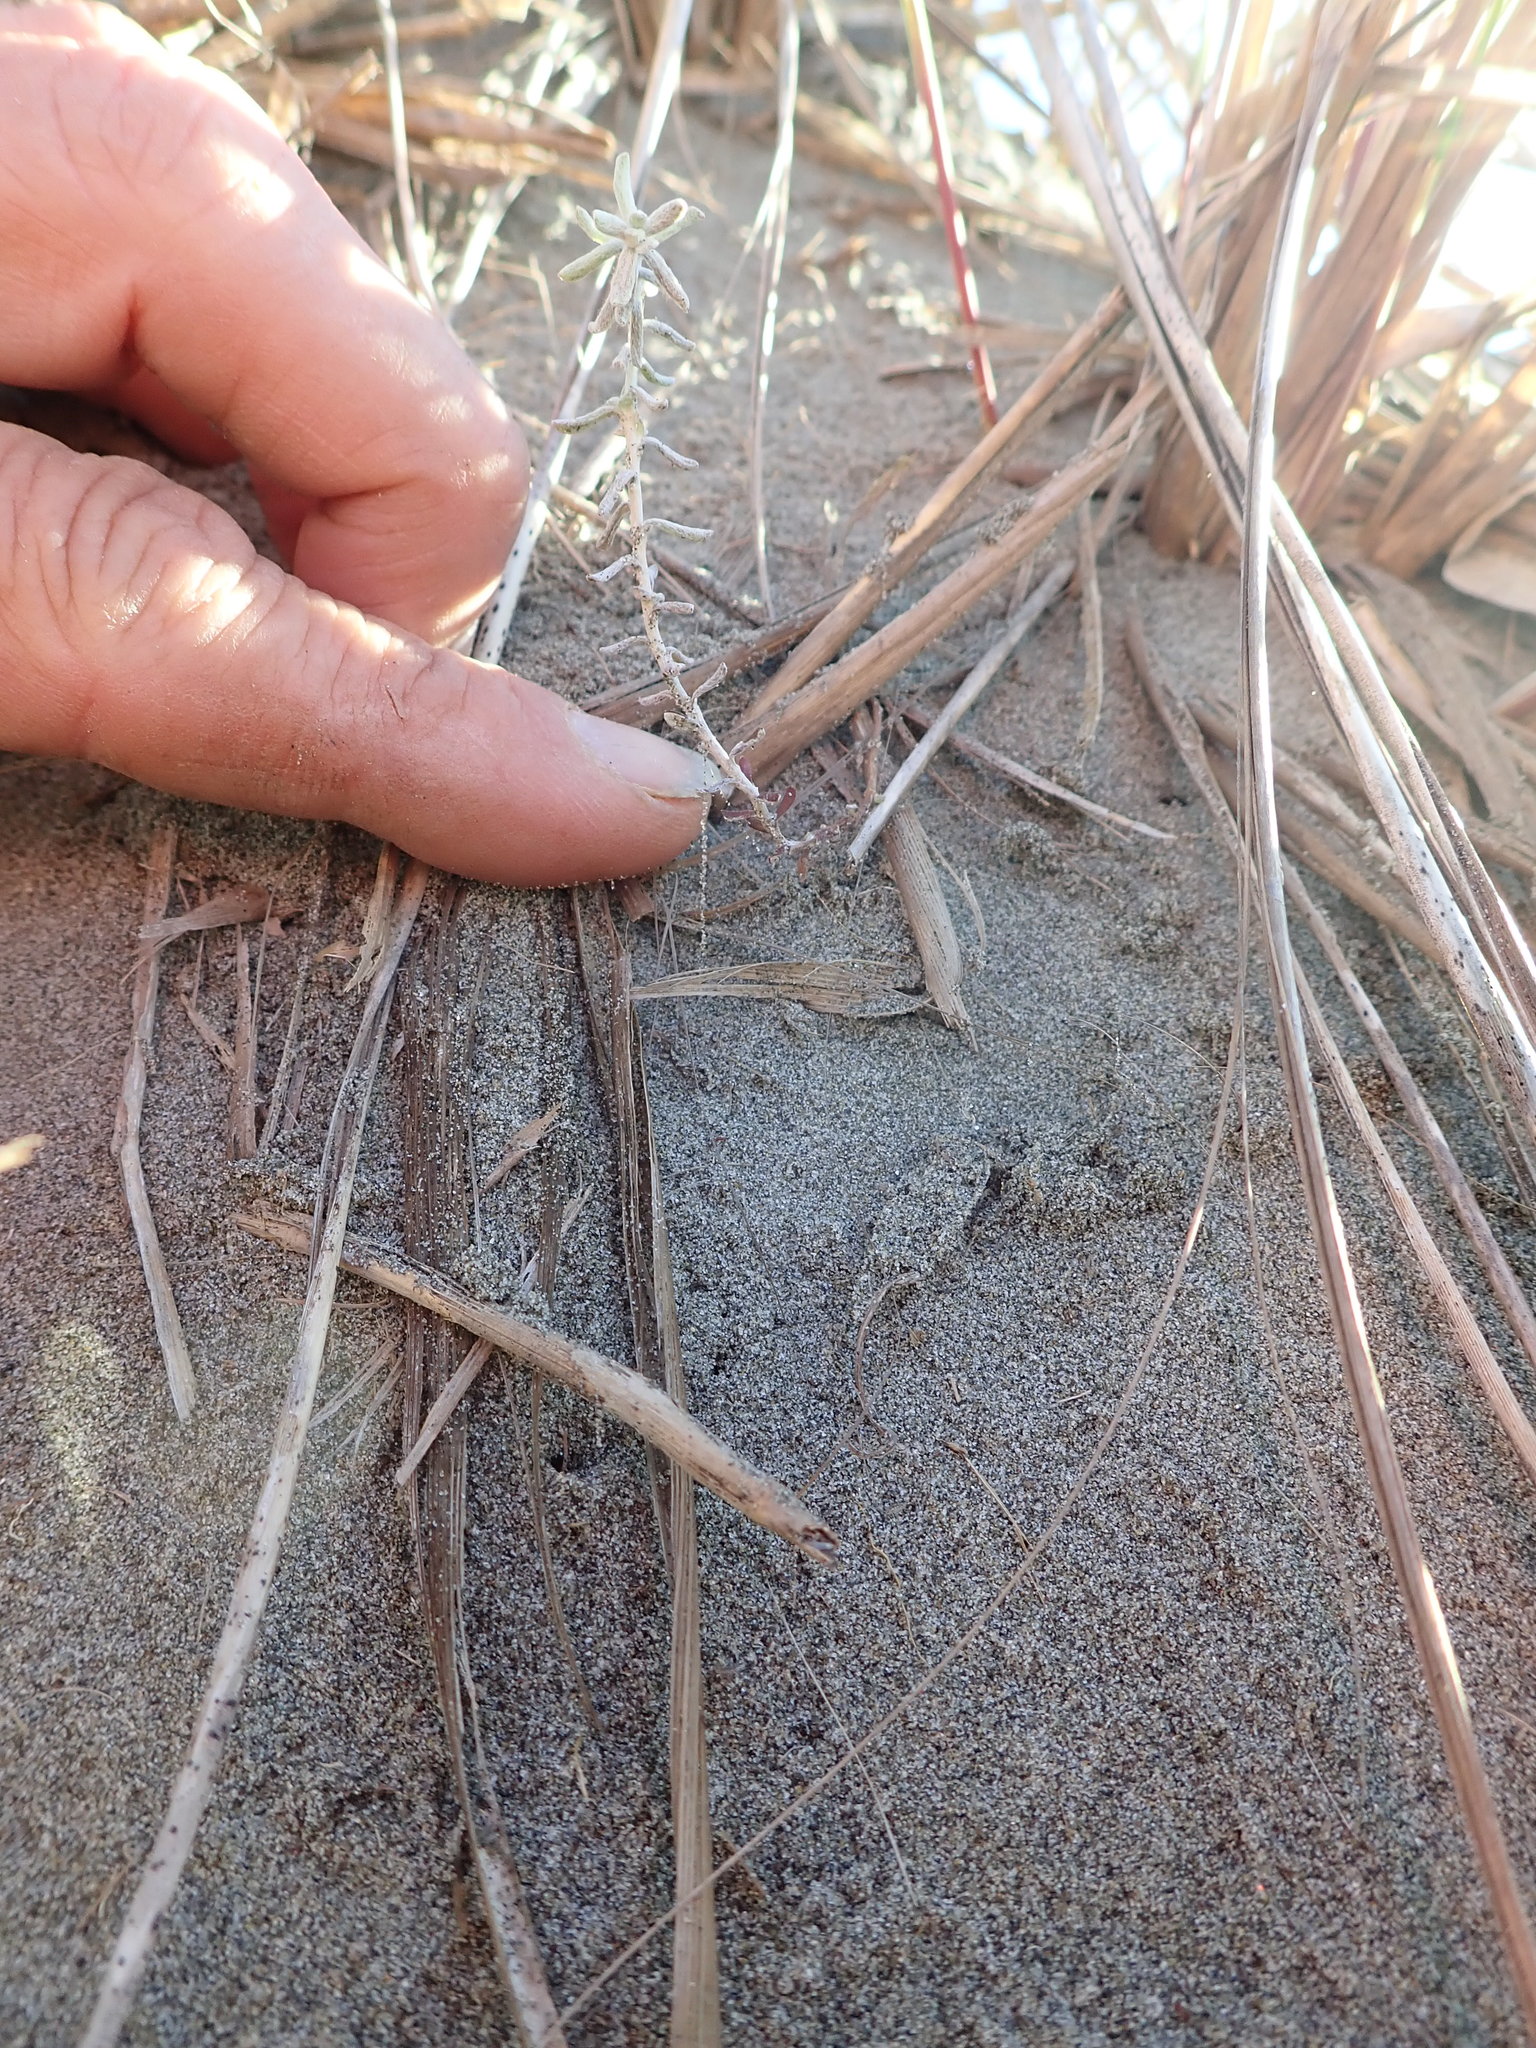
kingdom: Plantae
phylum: Tracheophyta
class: Magnoliopsida
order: Asterales
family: Asteraceae
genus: Ozothamnus
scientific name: Ozothamnus leptophyllus
